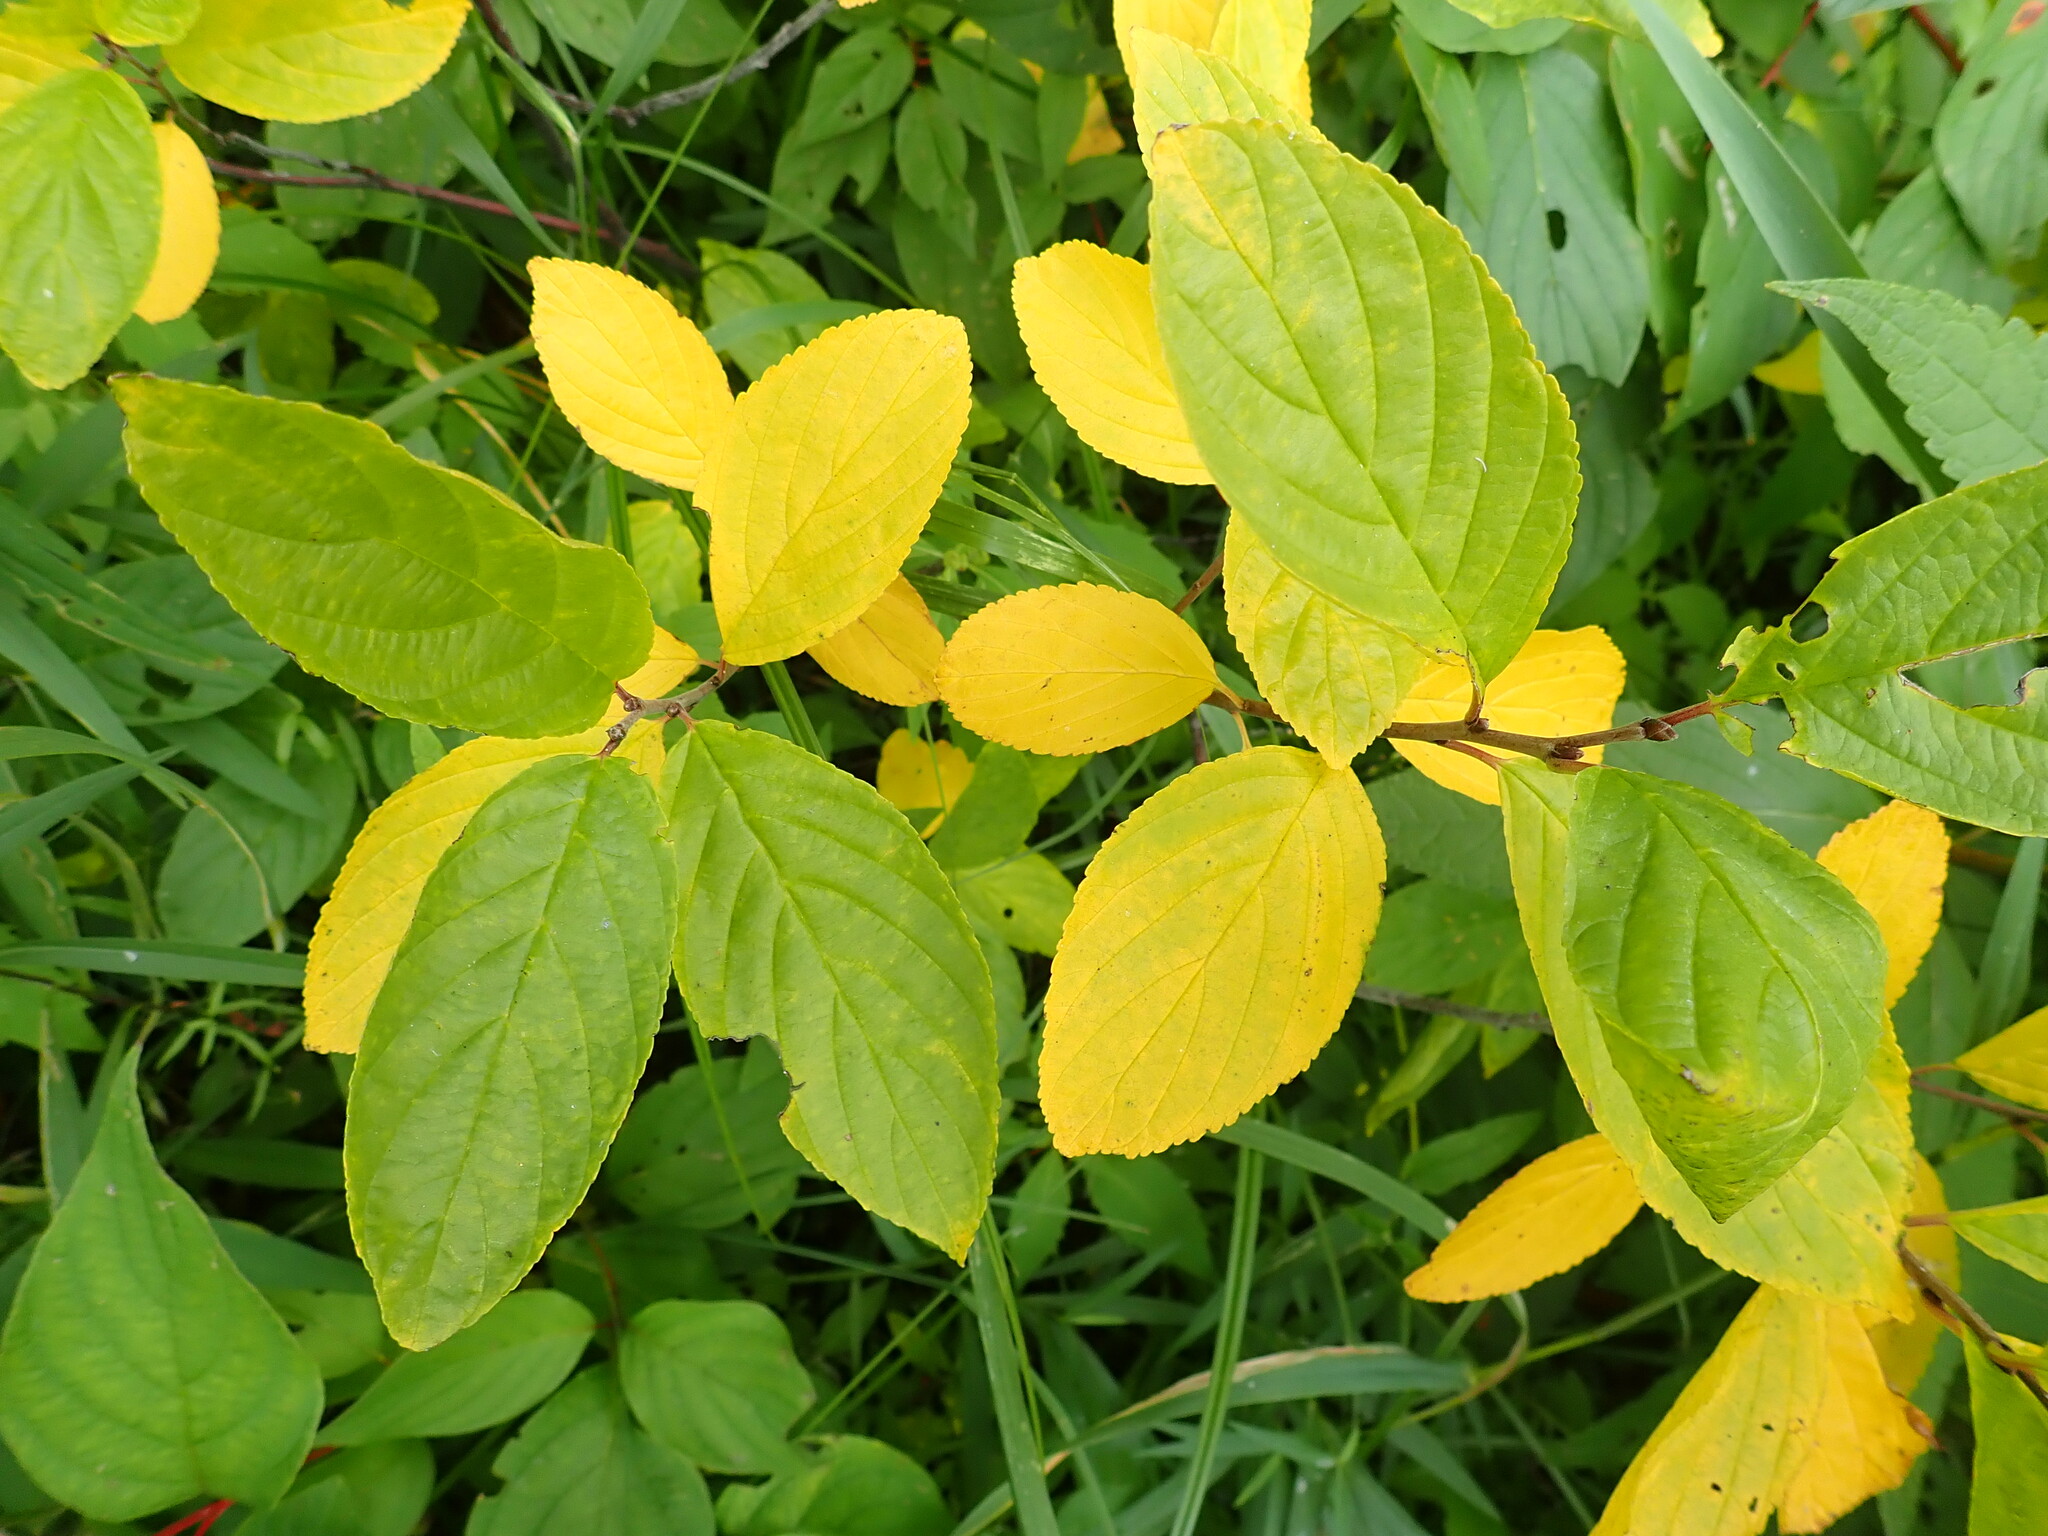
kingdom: Plantae
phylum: Tracheophyta
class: Magnoliopsida
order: Rosales
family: Rhamnaceae
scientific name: Rhamnaceae
